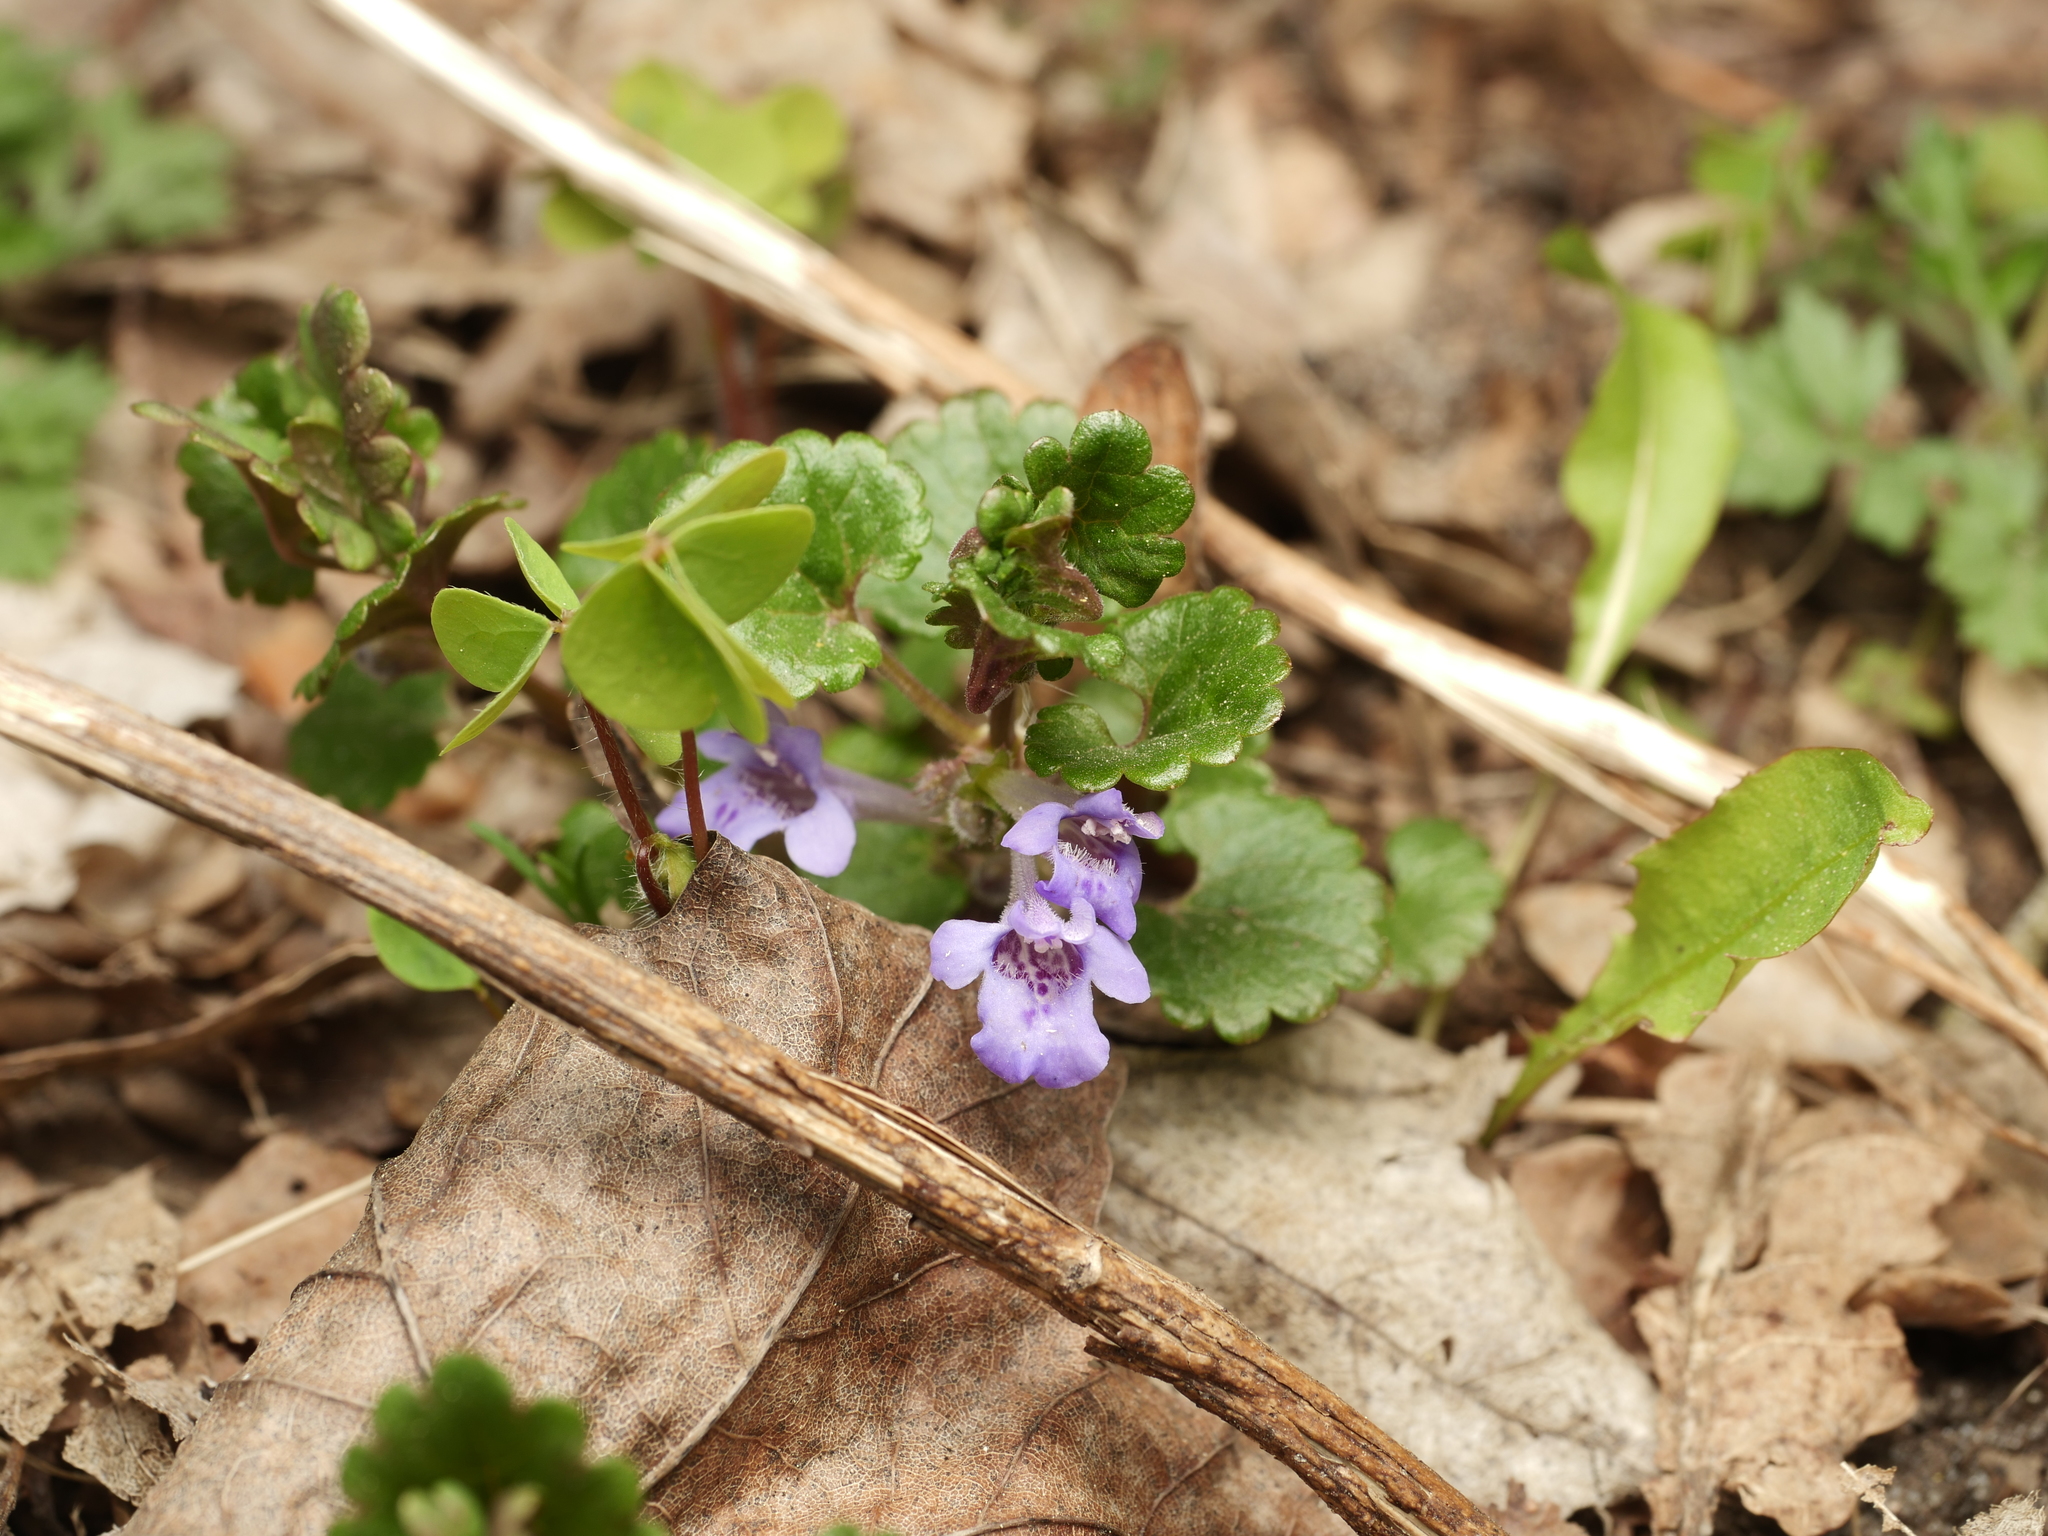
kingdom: Plantae
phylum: Tracheophyta
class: Magnoliopsida
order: Lamiales
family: Lamiaceae
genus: Glechoma
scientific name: Glechoma hederacea
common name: Ground ivy
